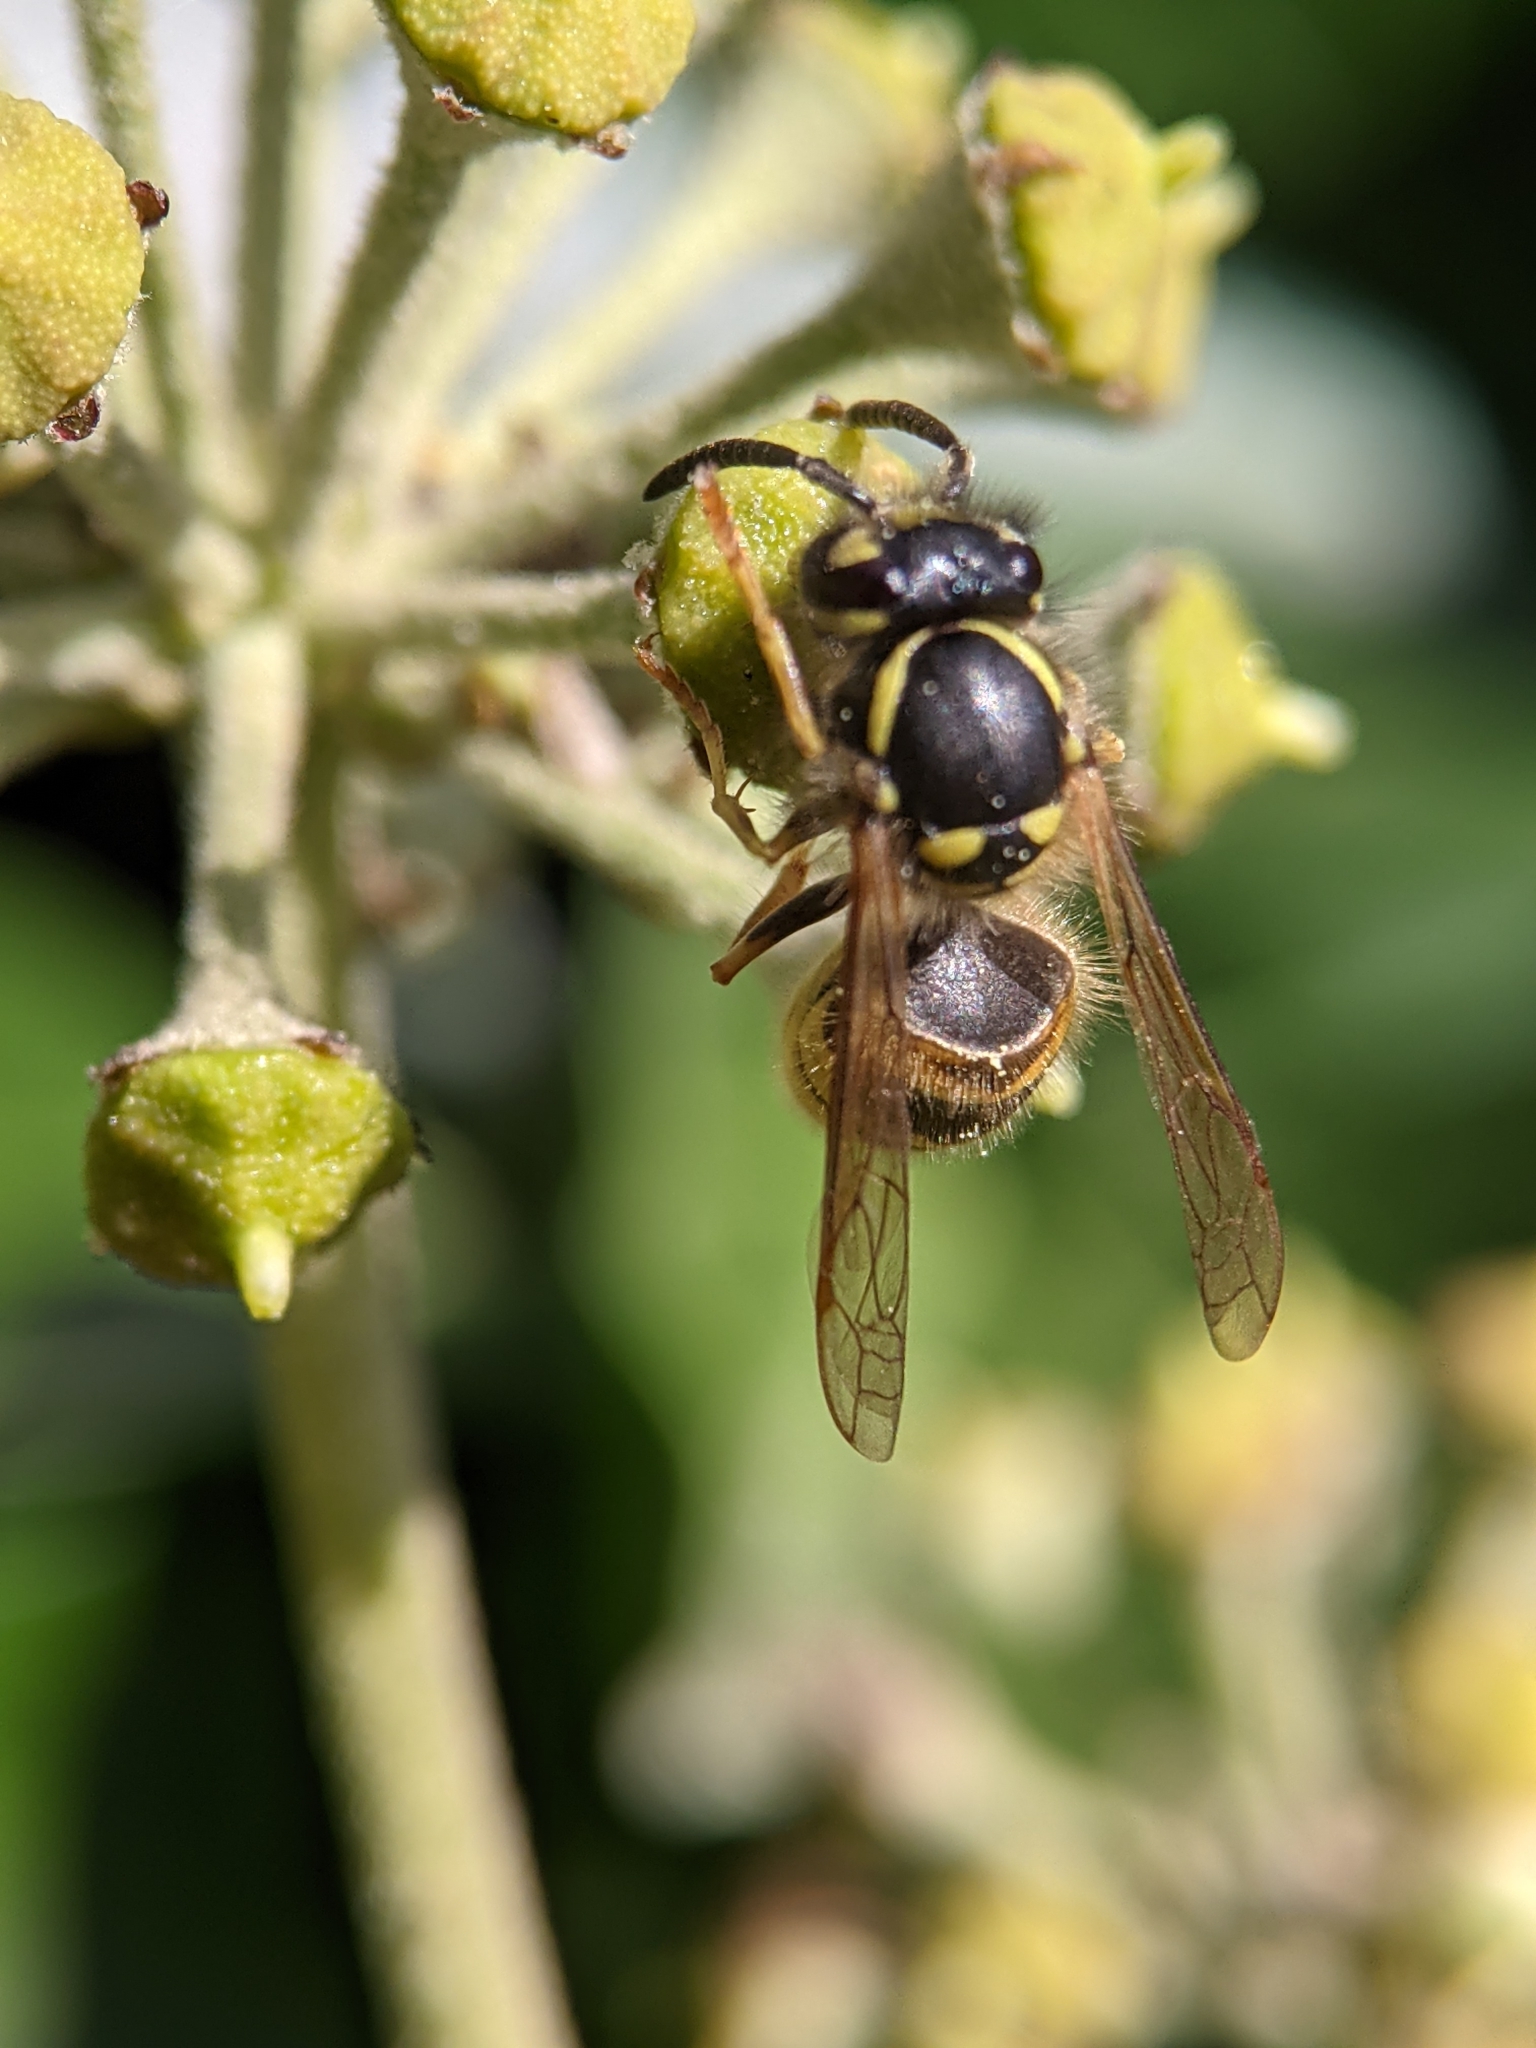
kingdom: Animalia
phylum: Arthropoda
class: Insecta
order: Hymenoptera
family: Vespidae
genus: Vespula
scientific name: Vespula vulgaris
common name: Common wasp
